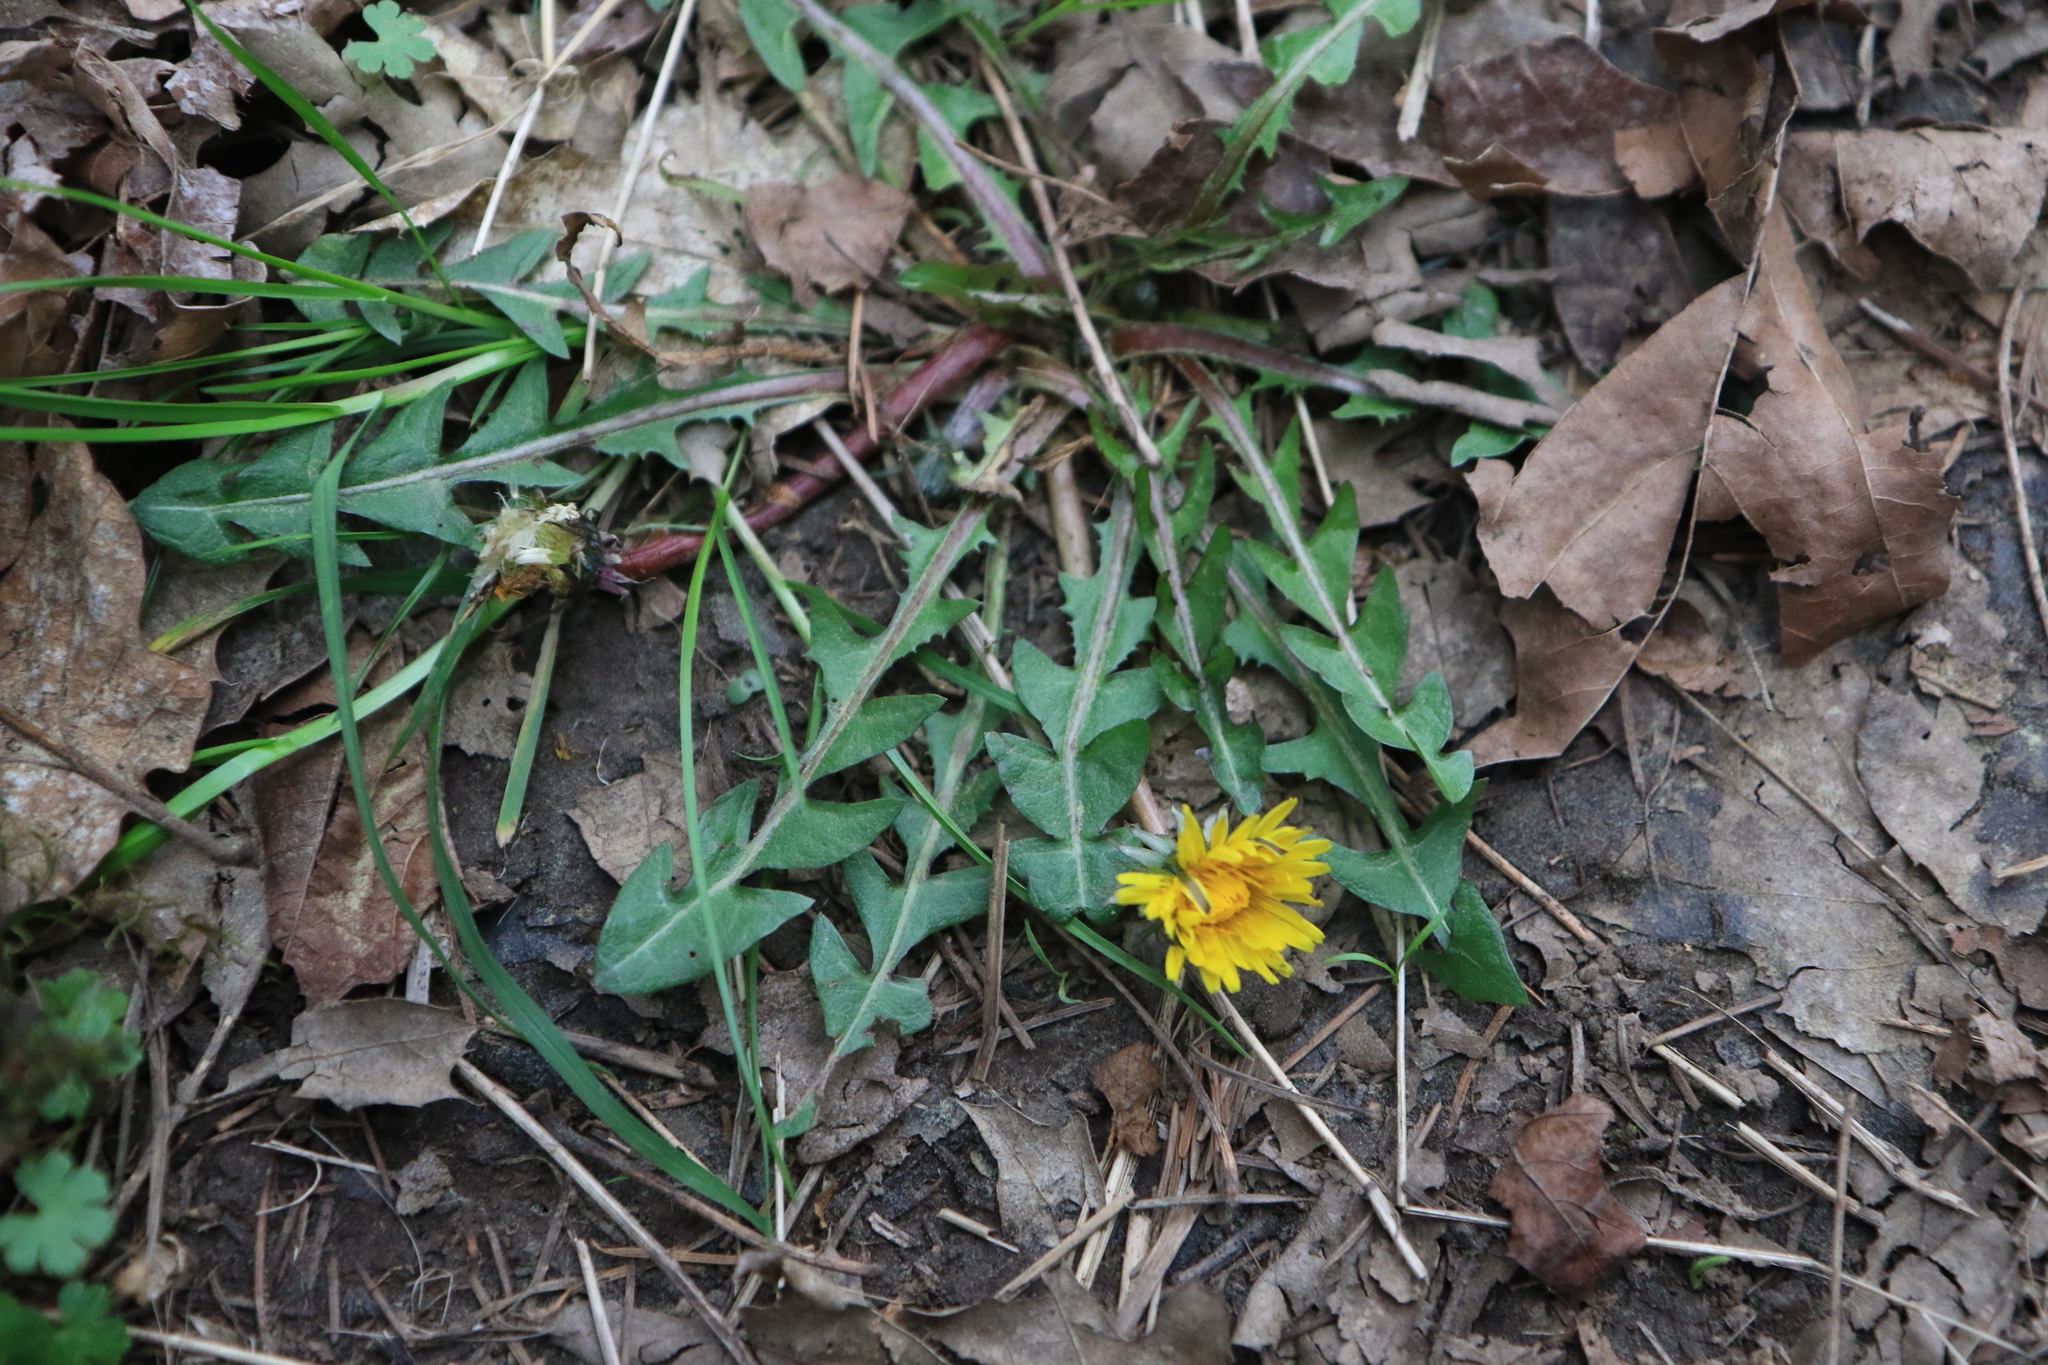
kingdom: Plantae
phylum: Tracheophyta
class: Magnoliopsida
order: Asterales
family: Asteraceae
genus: Taraxacum
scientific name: Taraxacum officinale
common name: Common dandelion
